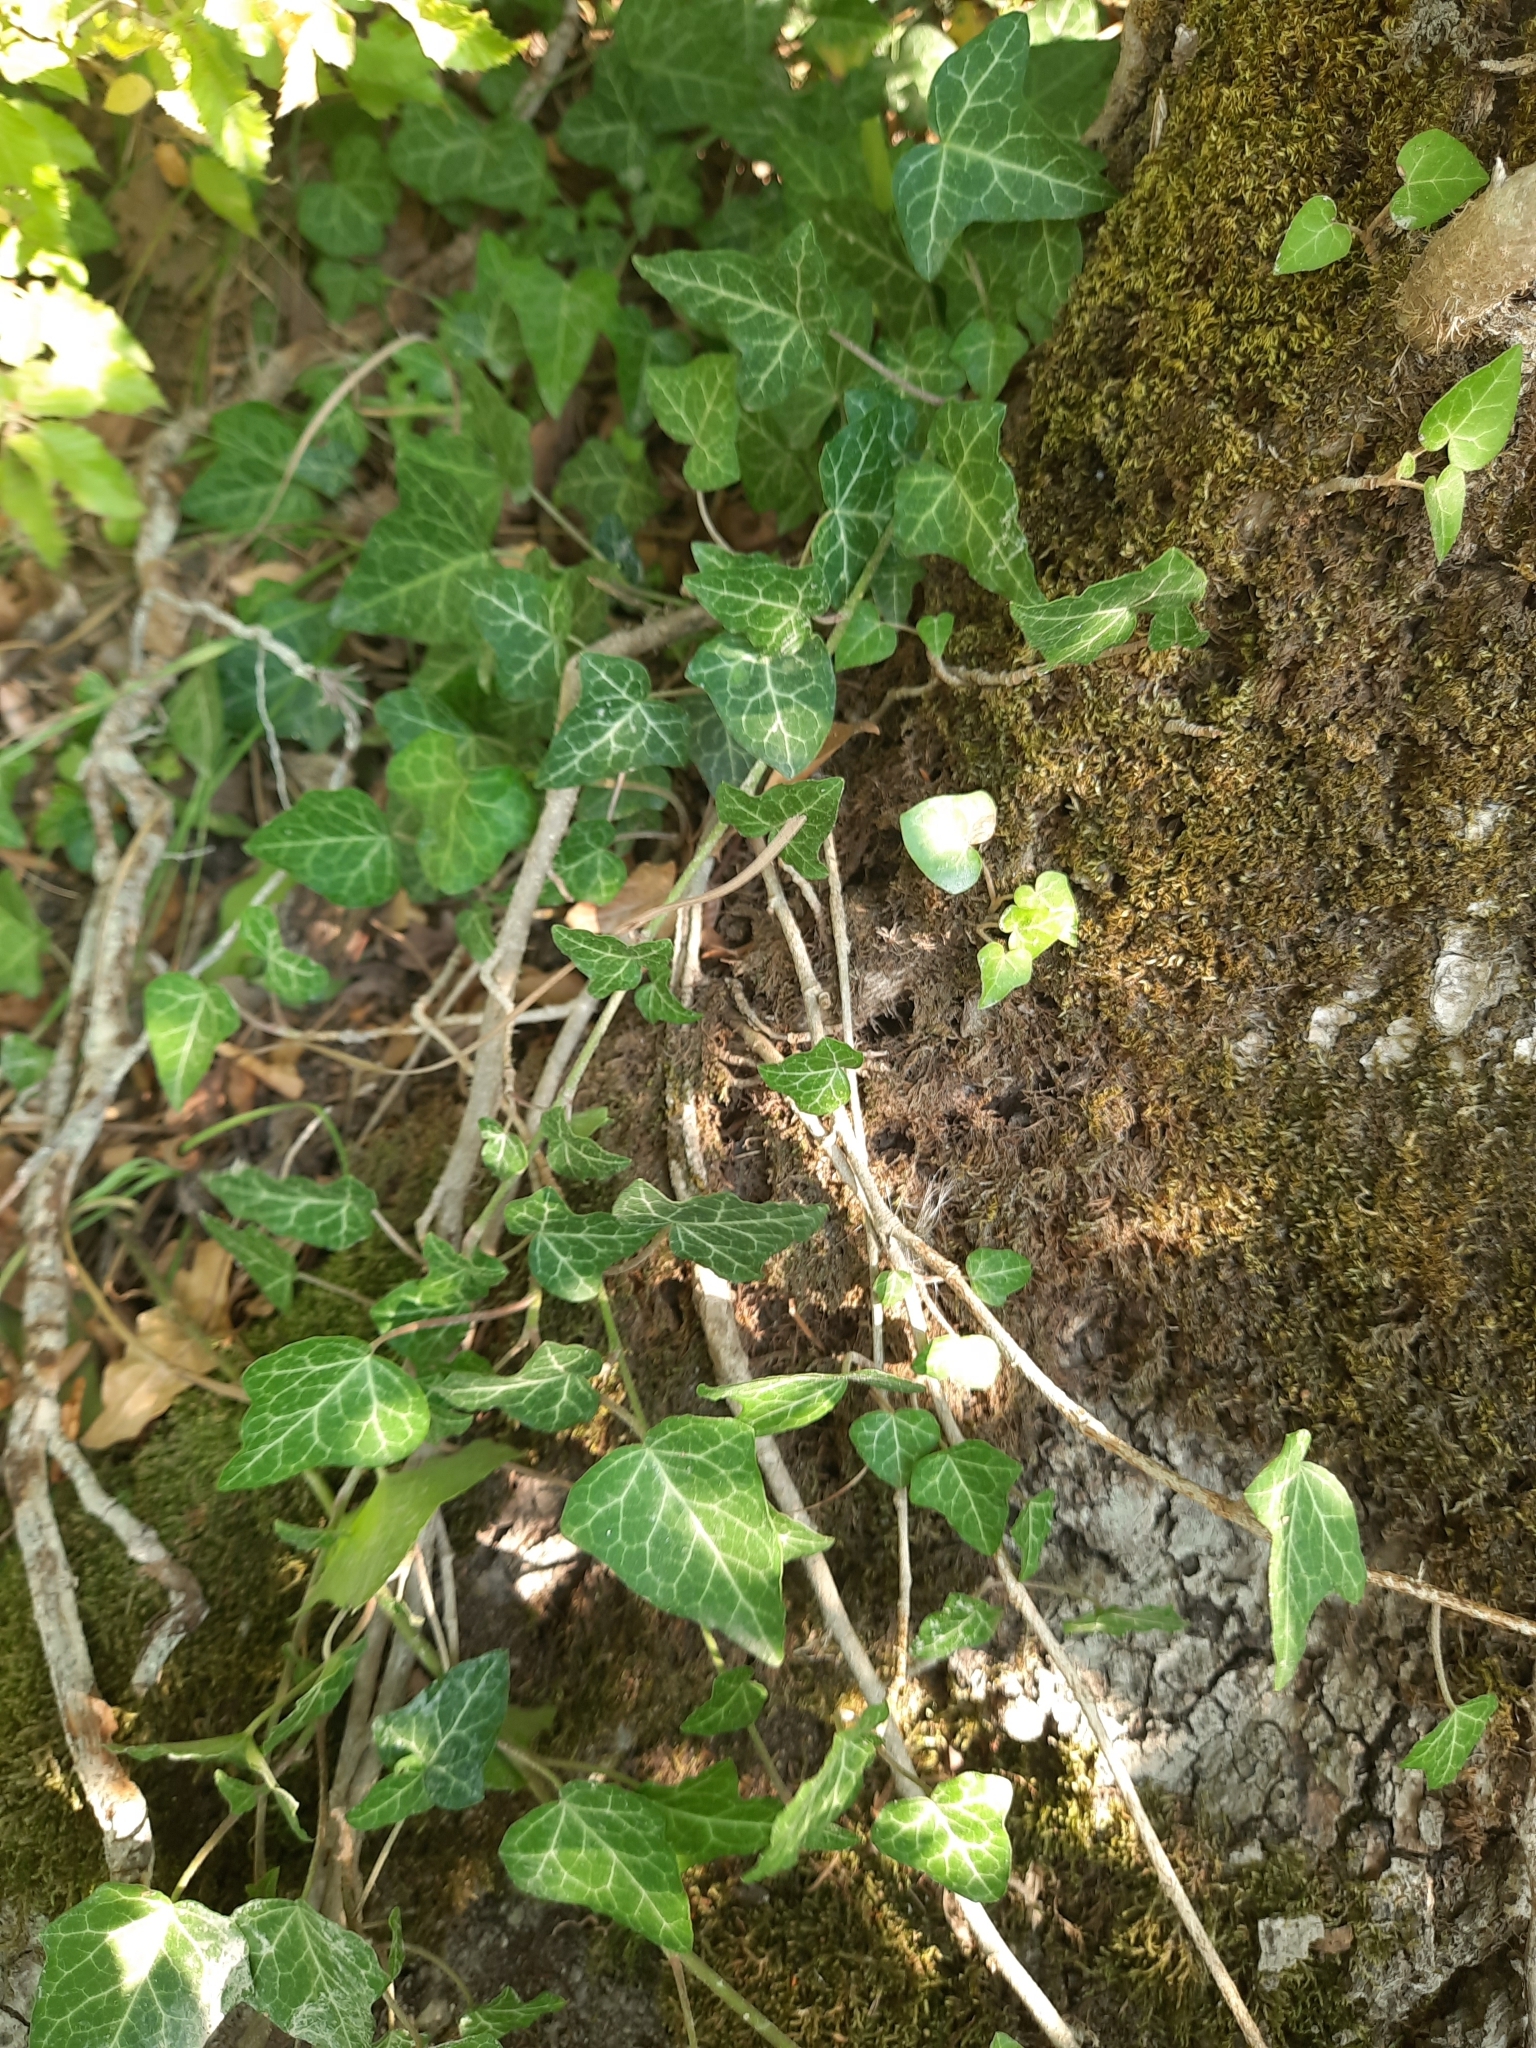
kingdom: Plantae
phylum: Tracheophyta
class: Magnoliopsida
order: Apiales
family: Araliaceae
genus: Hedera
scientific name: Hedera helix
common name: Ivy
